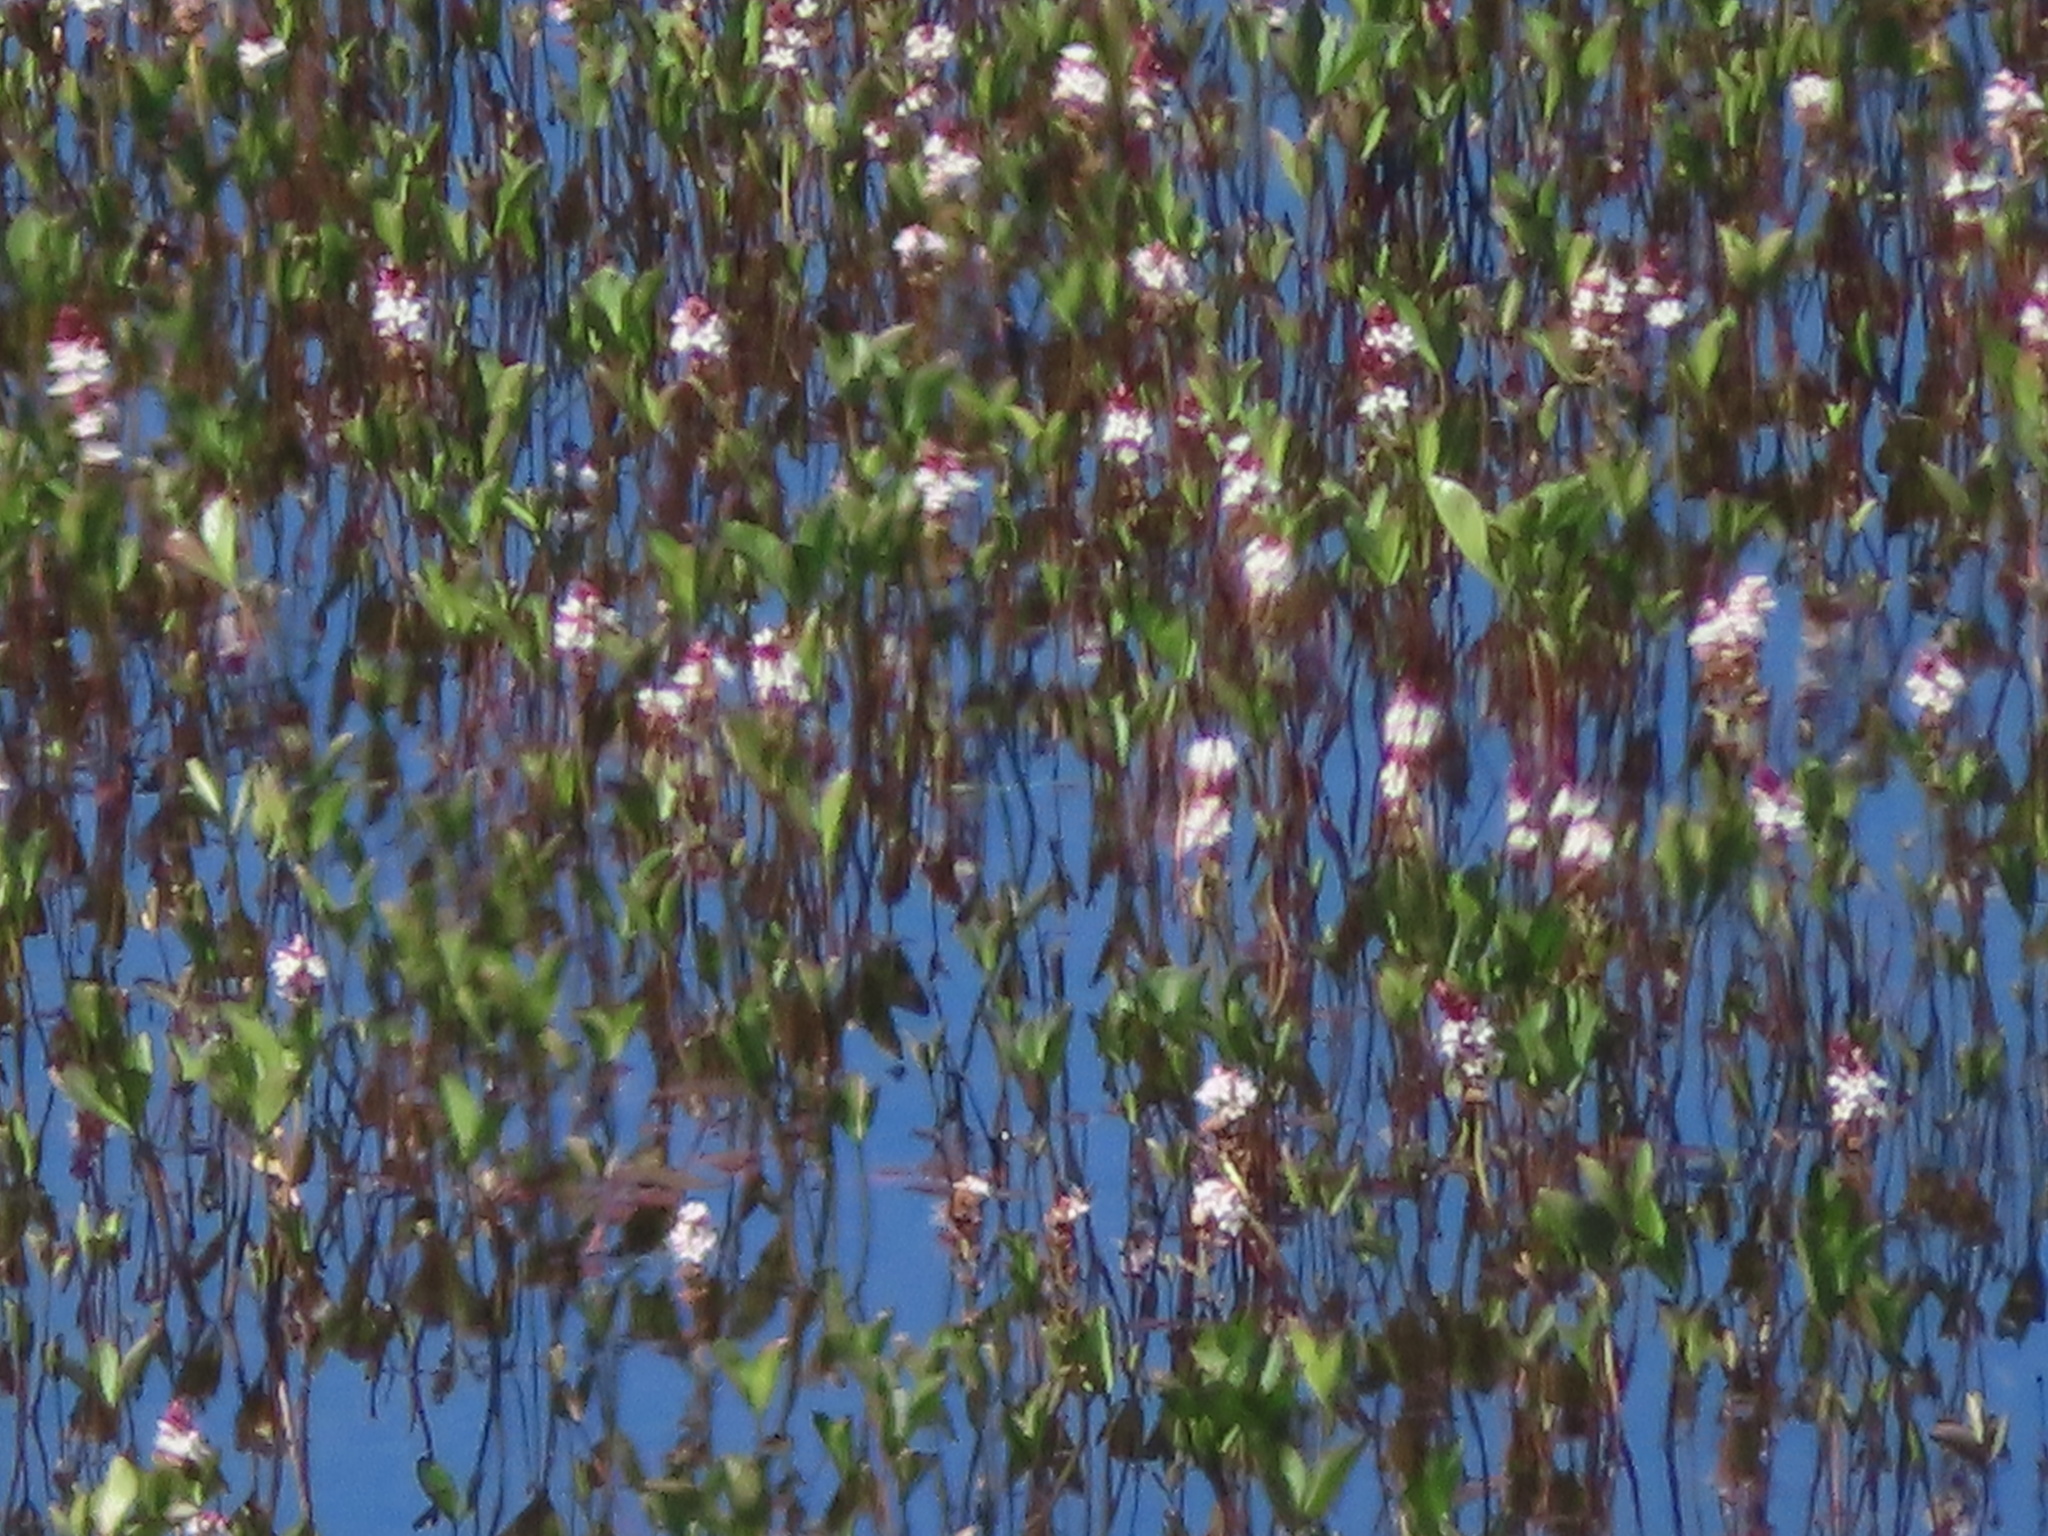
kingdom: Plantae
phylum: Tracheophyta
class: Magnoliopsida
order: Asterales
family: Menyanthaceae
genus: Menyanthes
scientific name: Menyanthes trifoliata
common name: Bogbean
